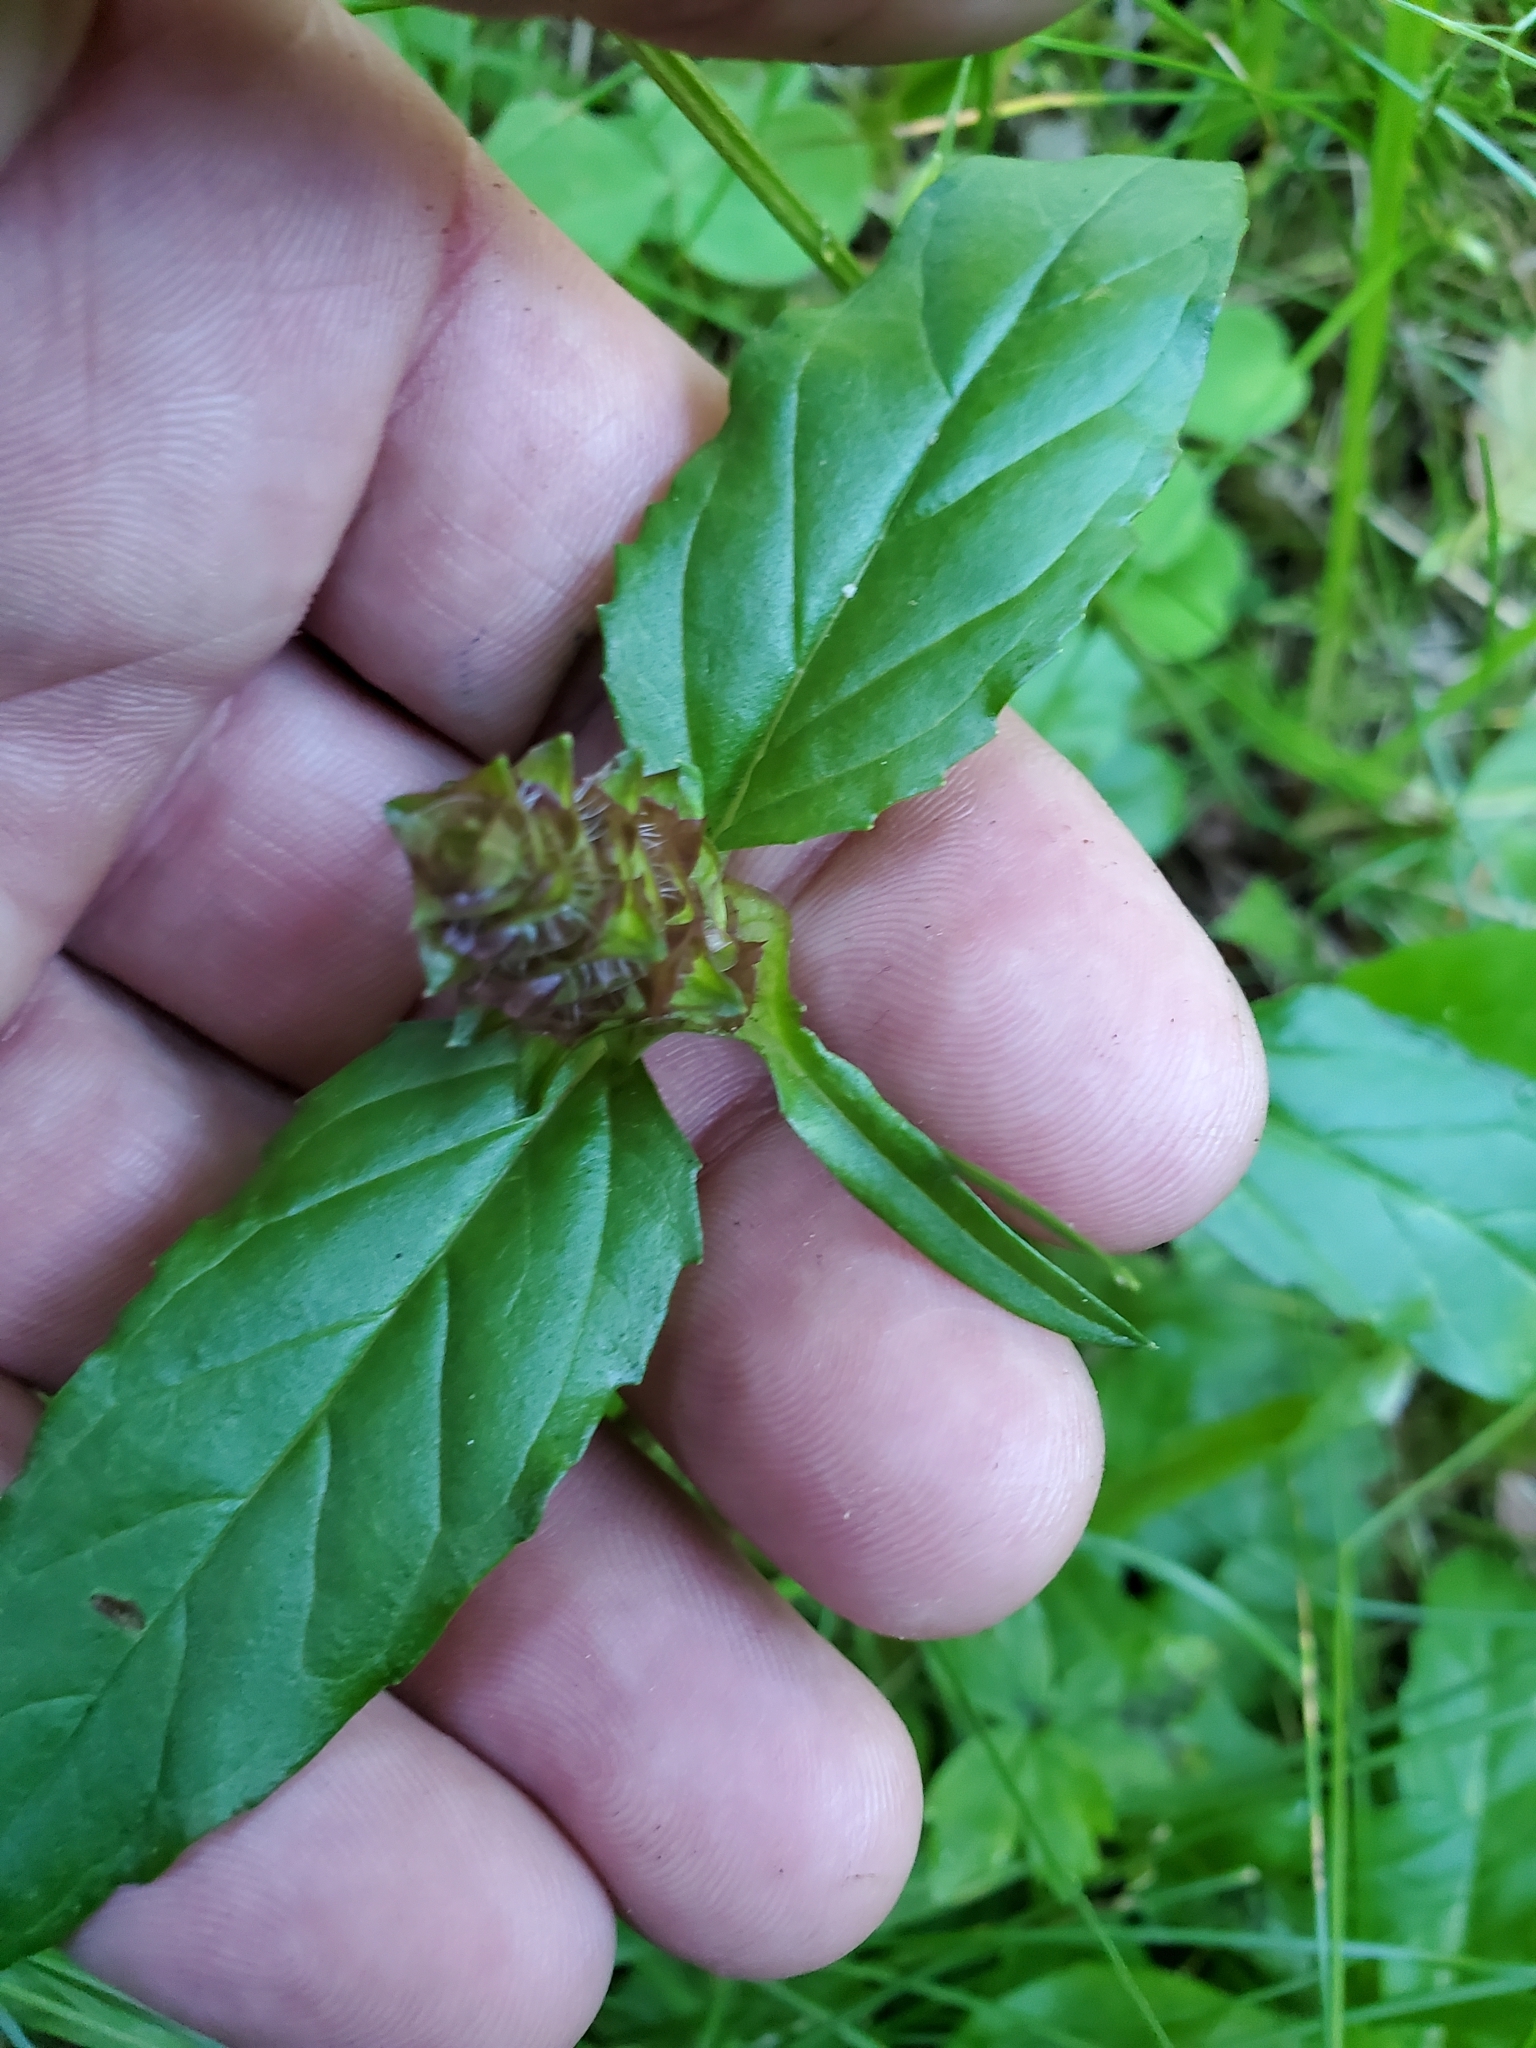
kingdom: Plantae
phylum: Tracheophyta
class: Magnoliopsida
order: Lamiales
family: Lamiaceae
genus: Prunella
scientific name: Prunella vulgaris
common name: Heal-all
